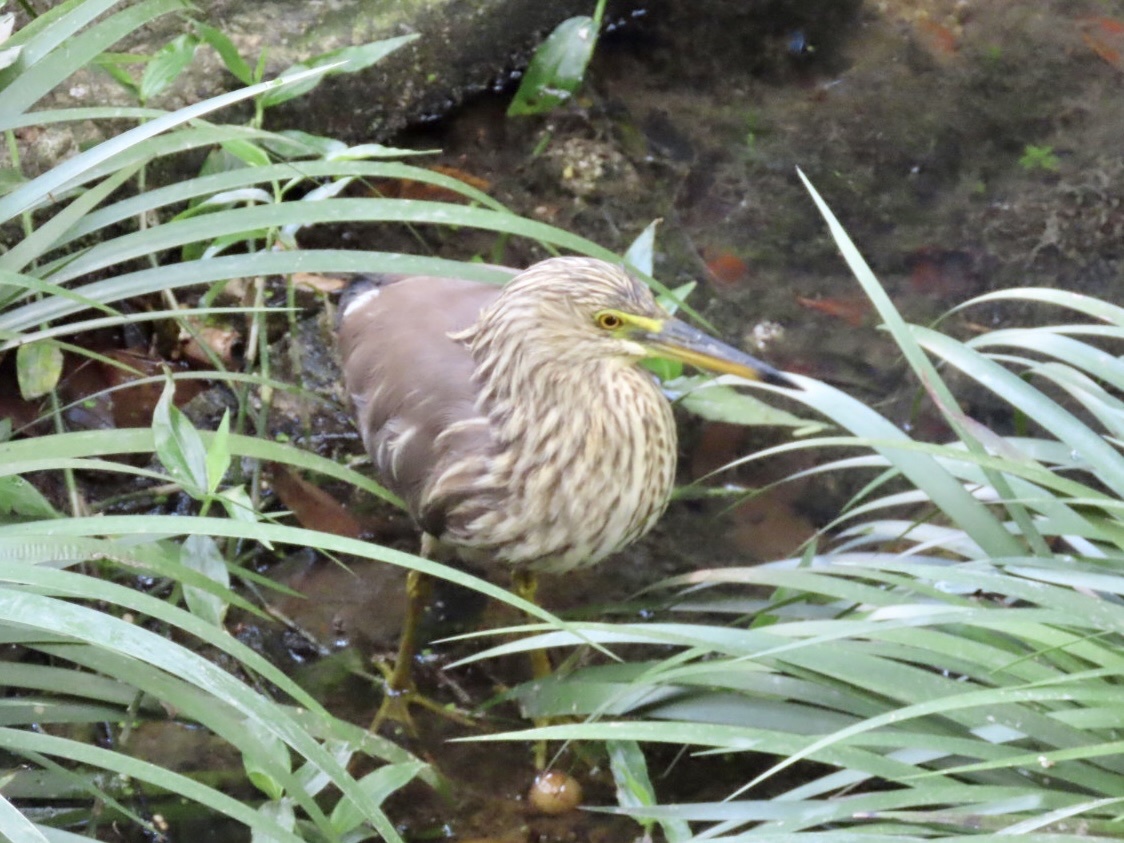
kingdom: Animalia
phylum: Chordata
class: Aves
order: Pelecaniformes
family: Ardeidae
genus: Ardeola
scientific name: Ardeola bacchus
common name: Chinese pond heron
